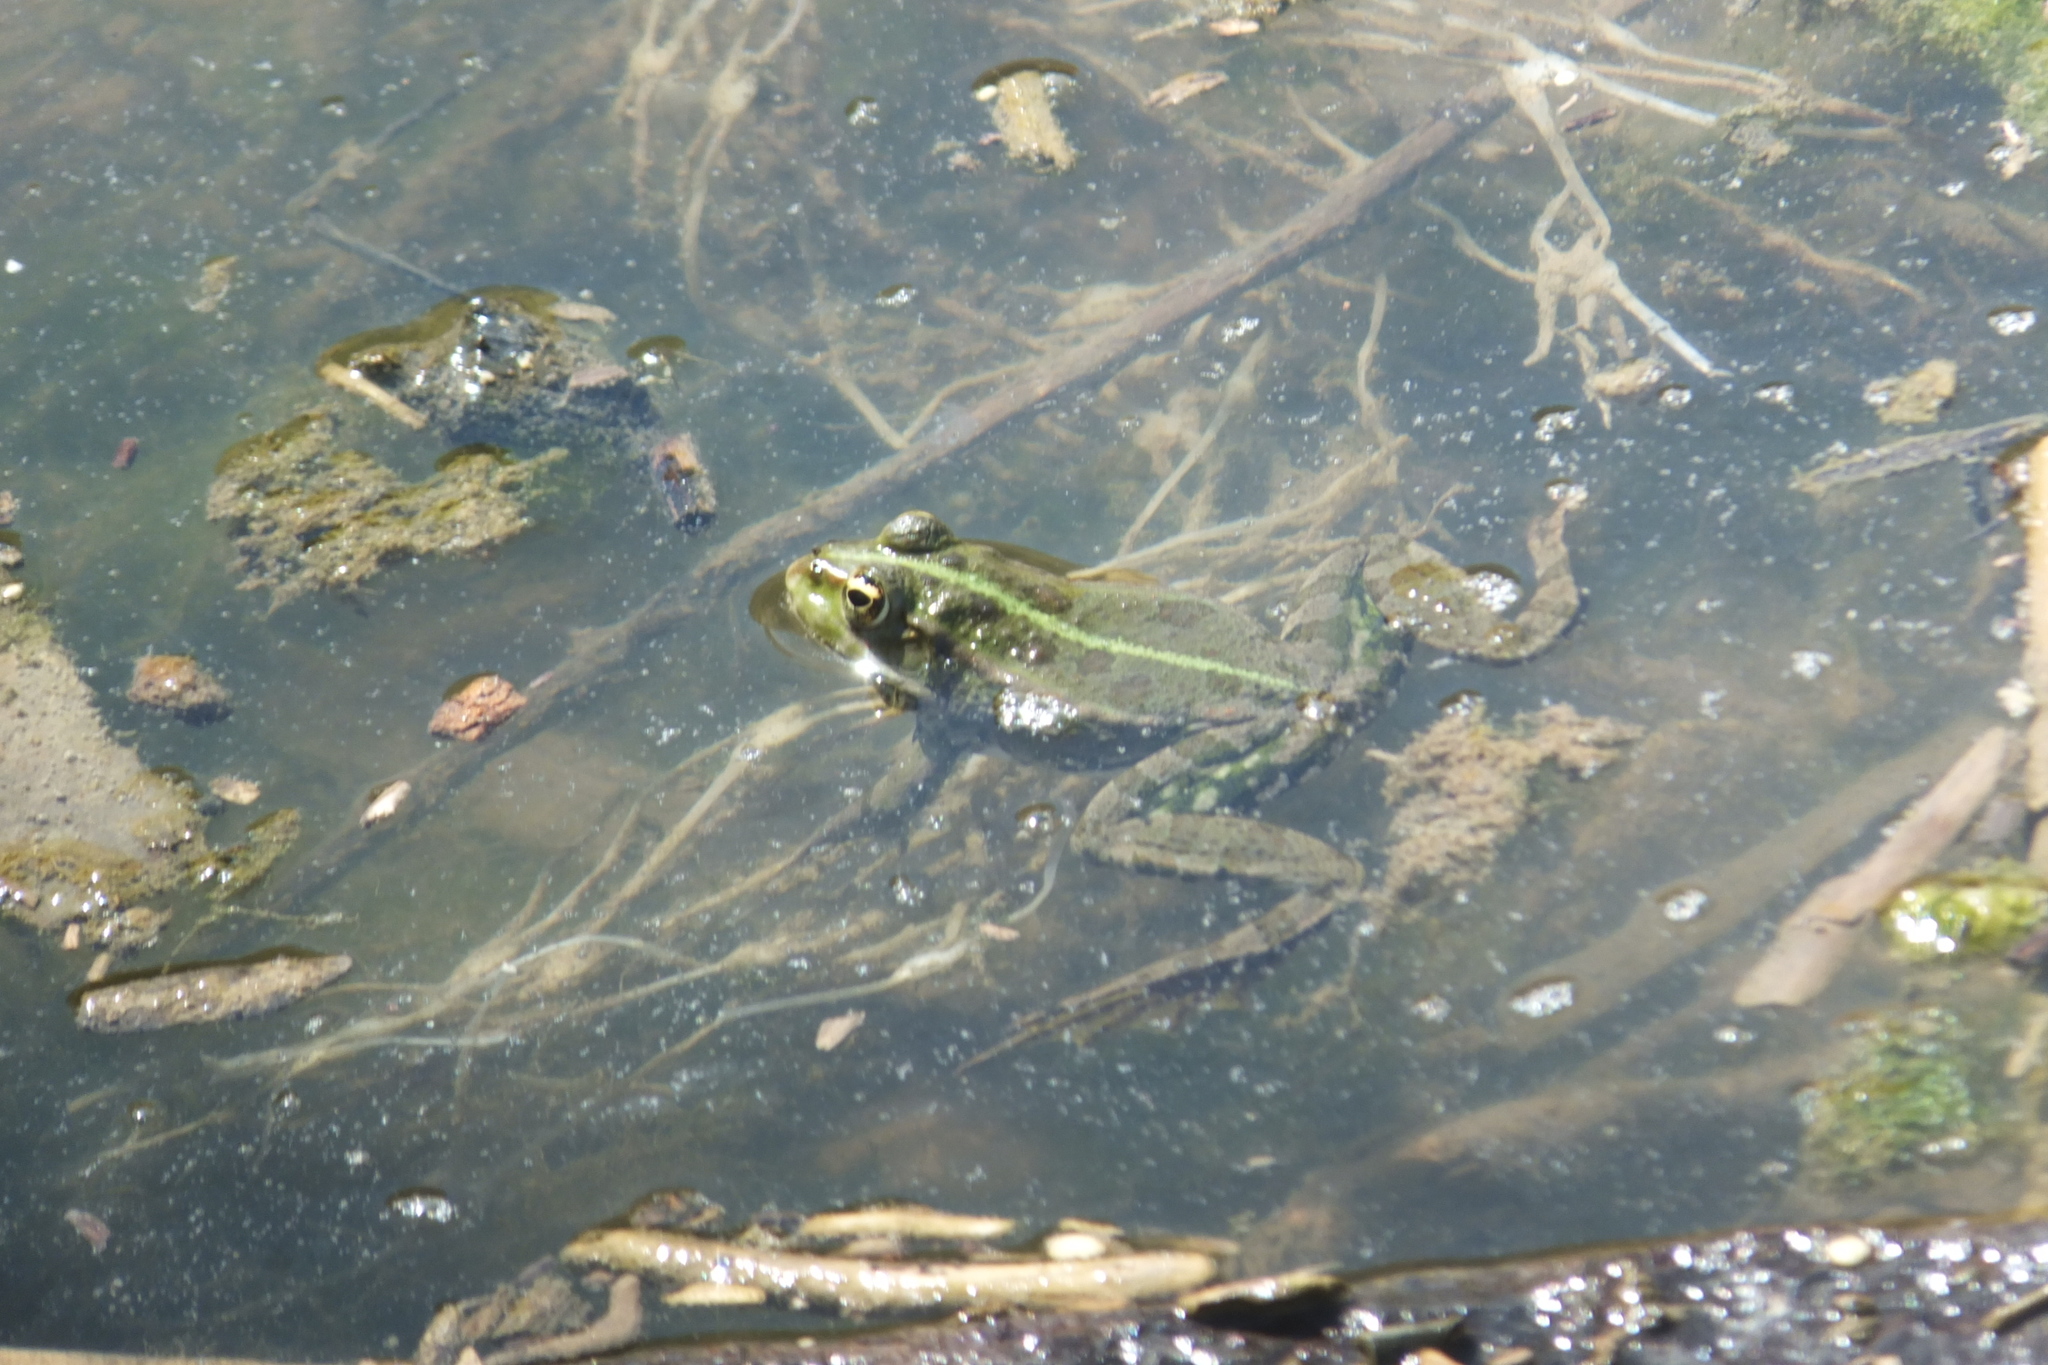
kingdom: Animalia
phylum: Chordata
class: Amphibia
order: Anura
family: Ranidae
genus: Pelophylax
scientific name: Pelophylax
